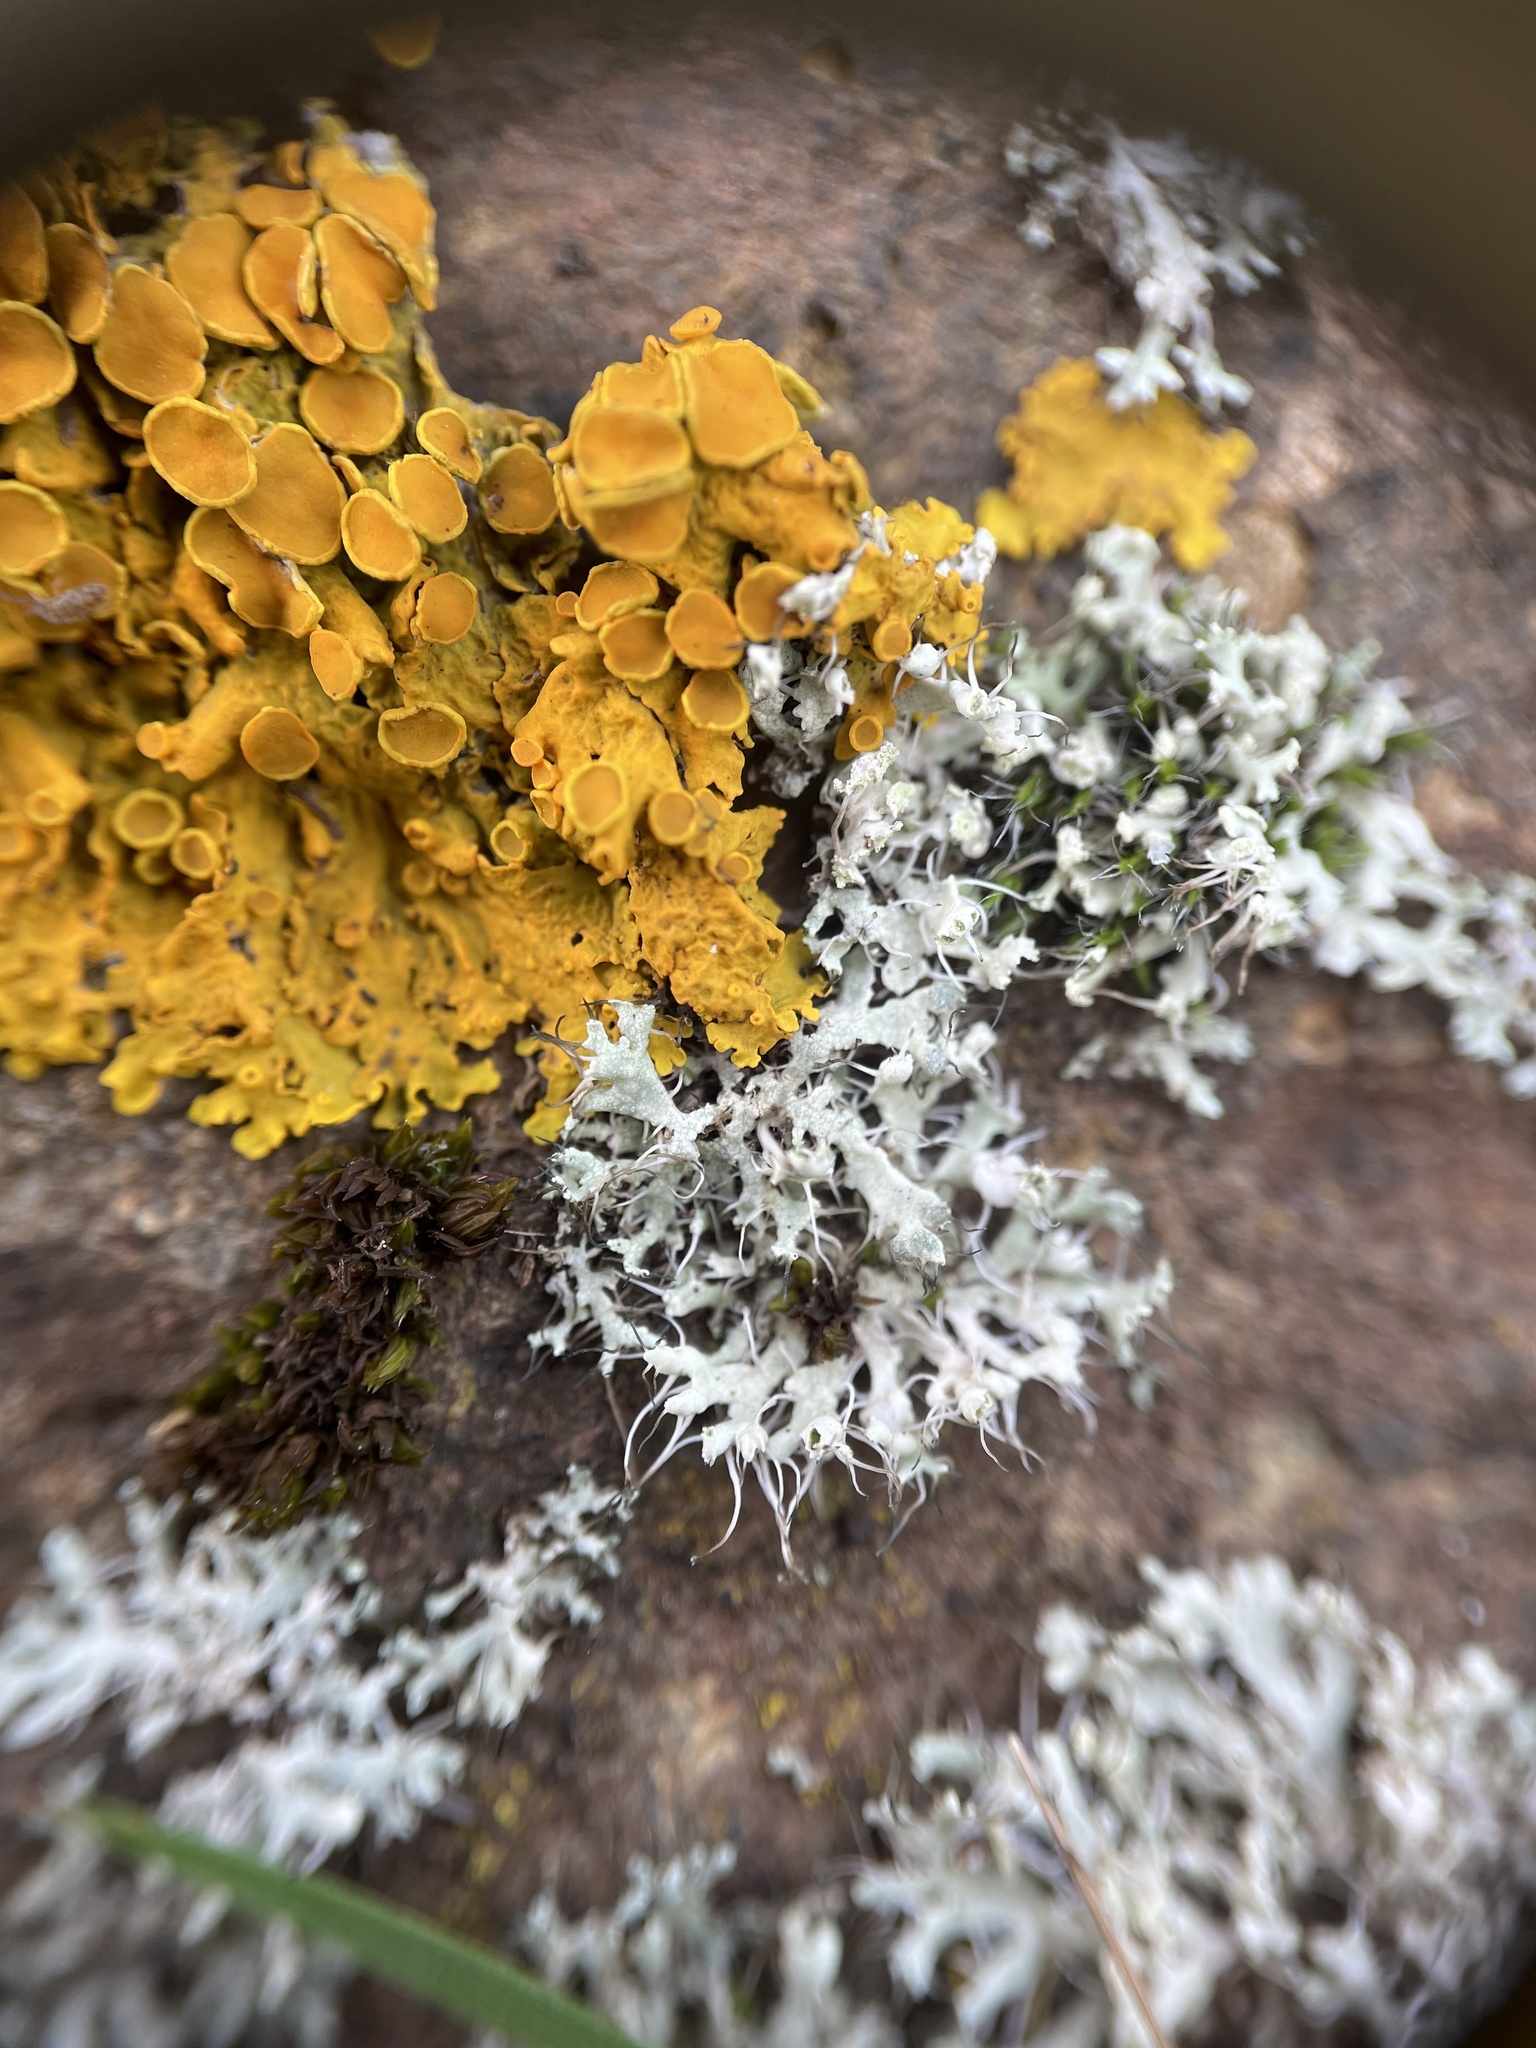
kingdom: Fungi
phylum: Ascomycota
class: Lecanoromycetes
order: Caliciales
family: Physciaceae
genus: Physcia
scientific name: Physcia adscendens
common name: Hooded rosette lichen
